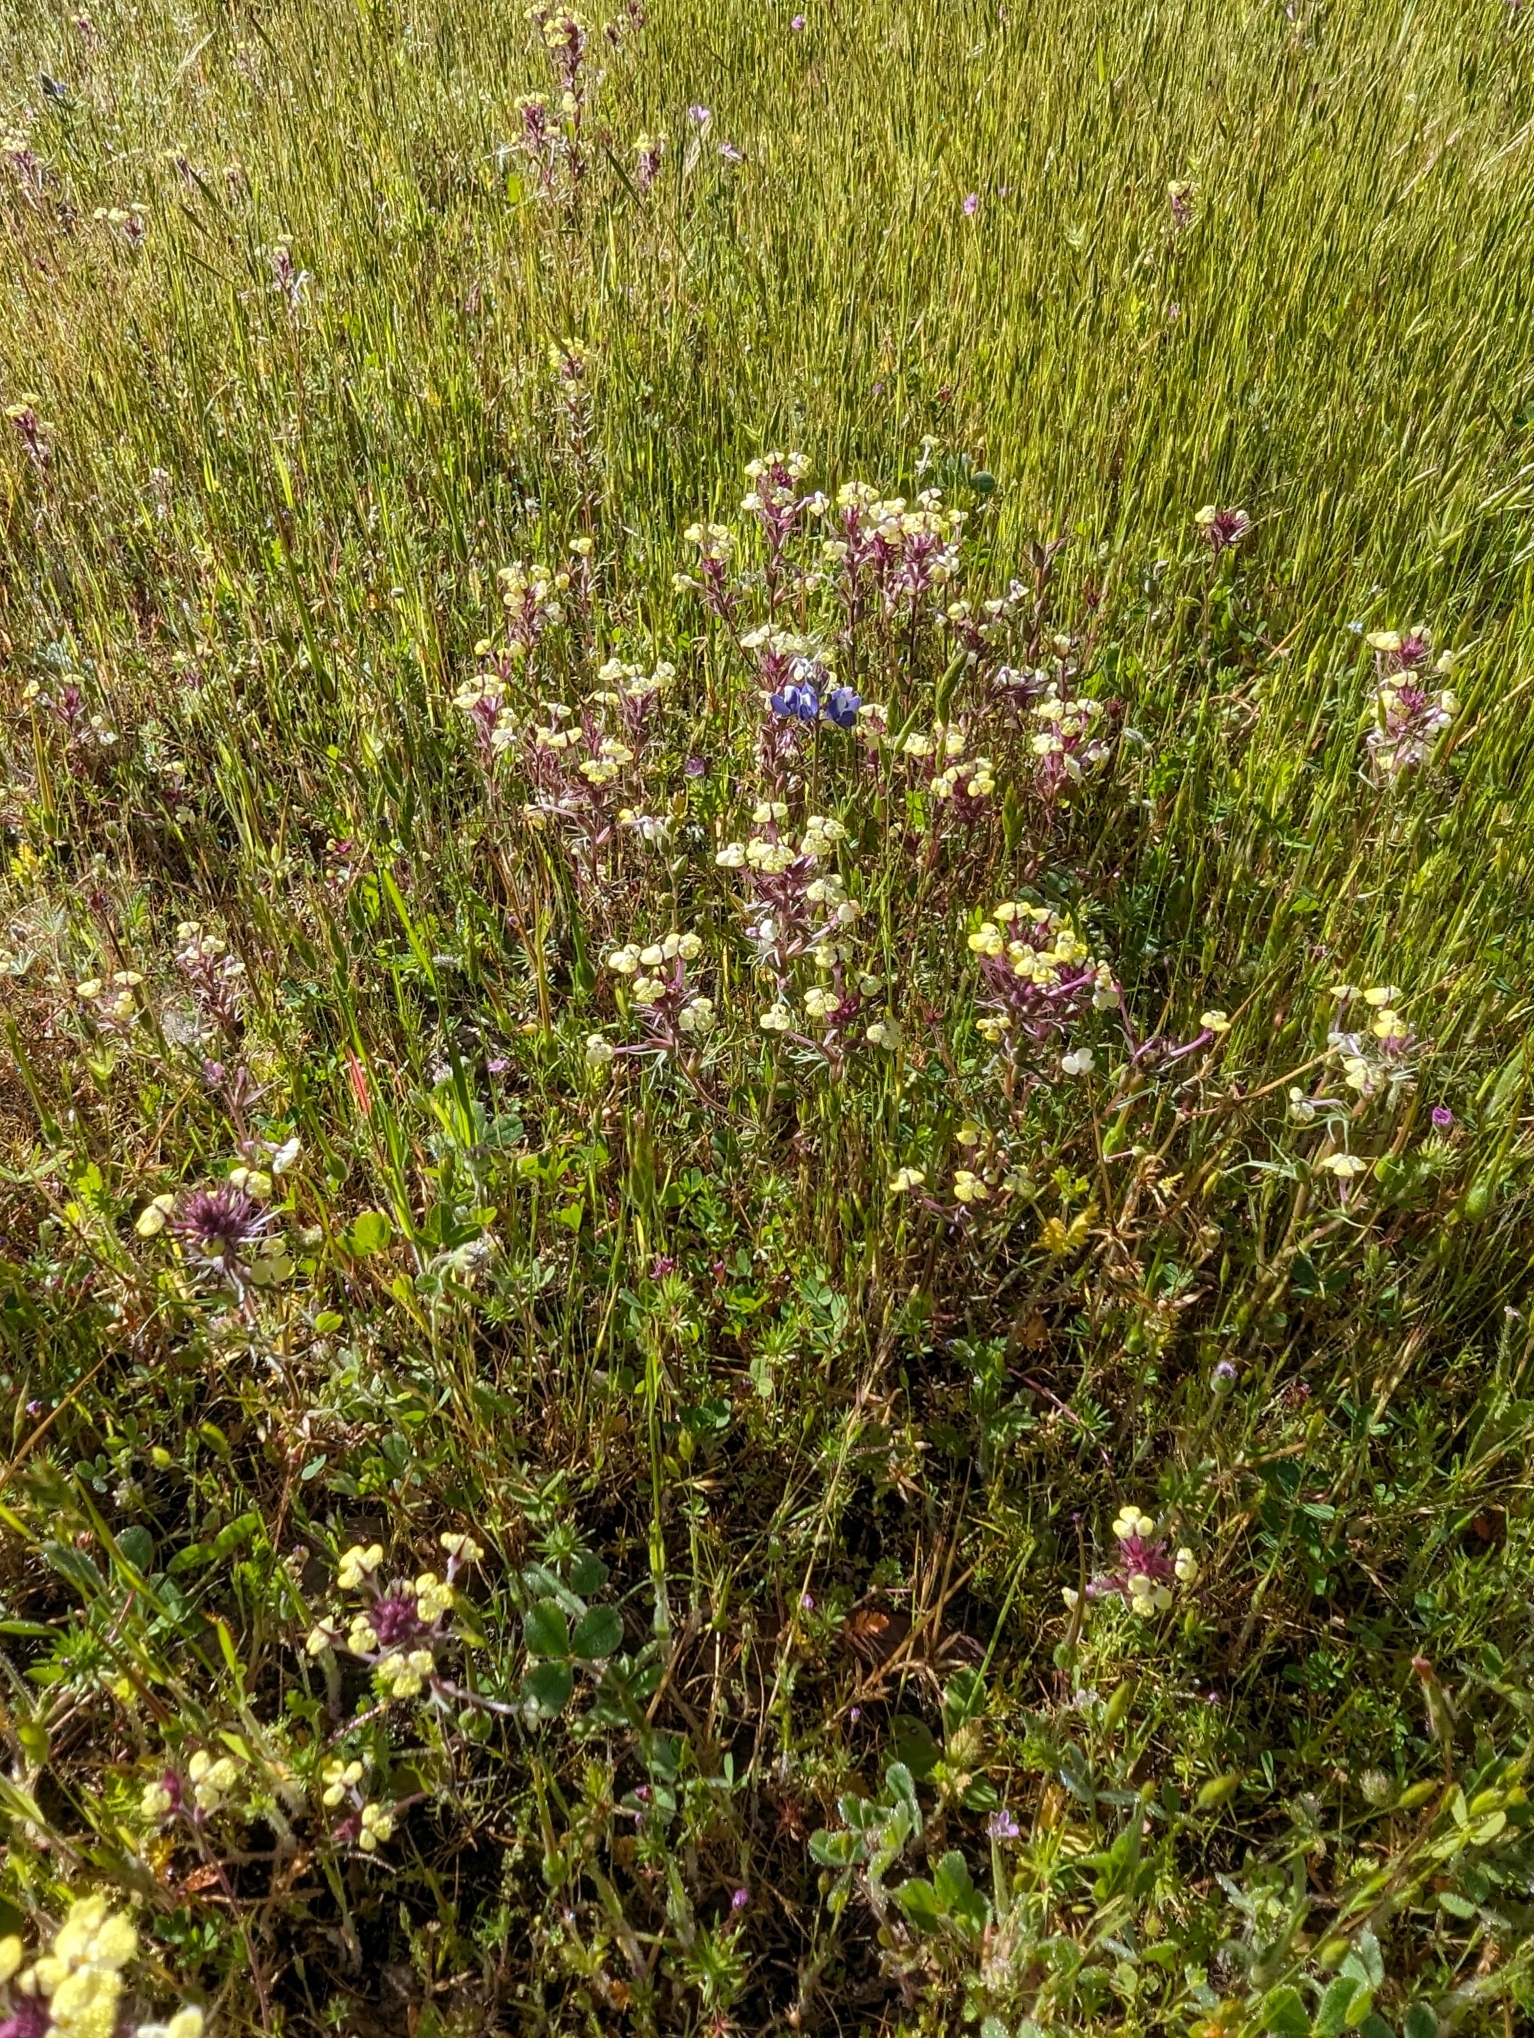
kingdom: Plantae
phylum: Tracheophyta
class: Magnoliopsida
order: Lamiales
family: Orobanchaceae
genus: Triphysaria
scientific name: Triphysaria eriantha
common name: Johnny-tuck
